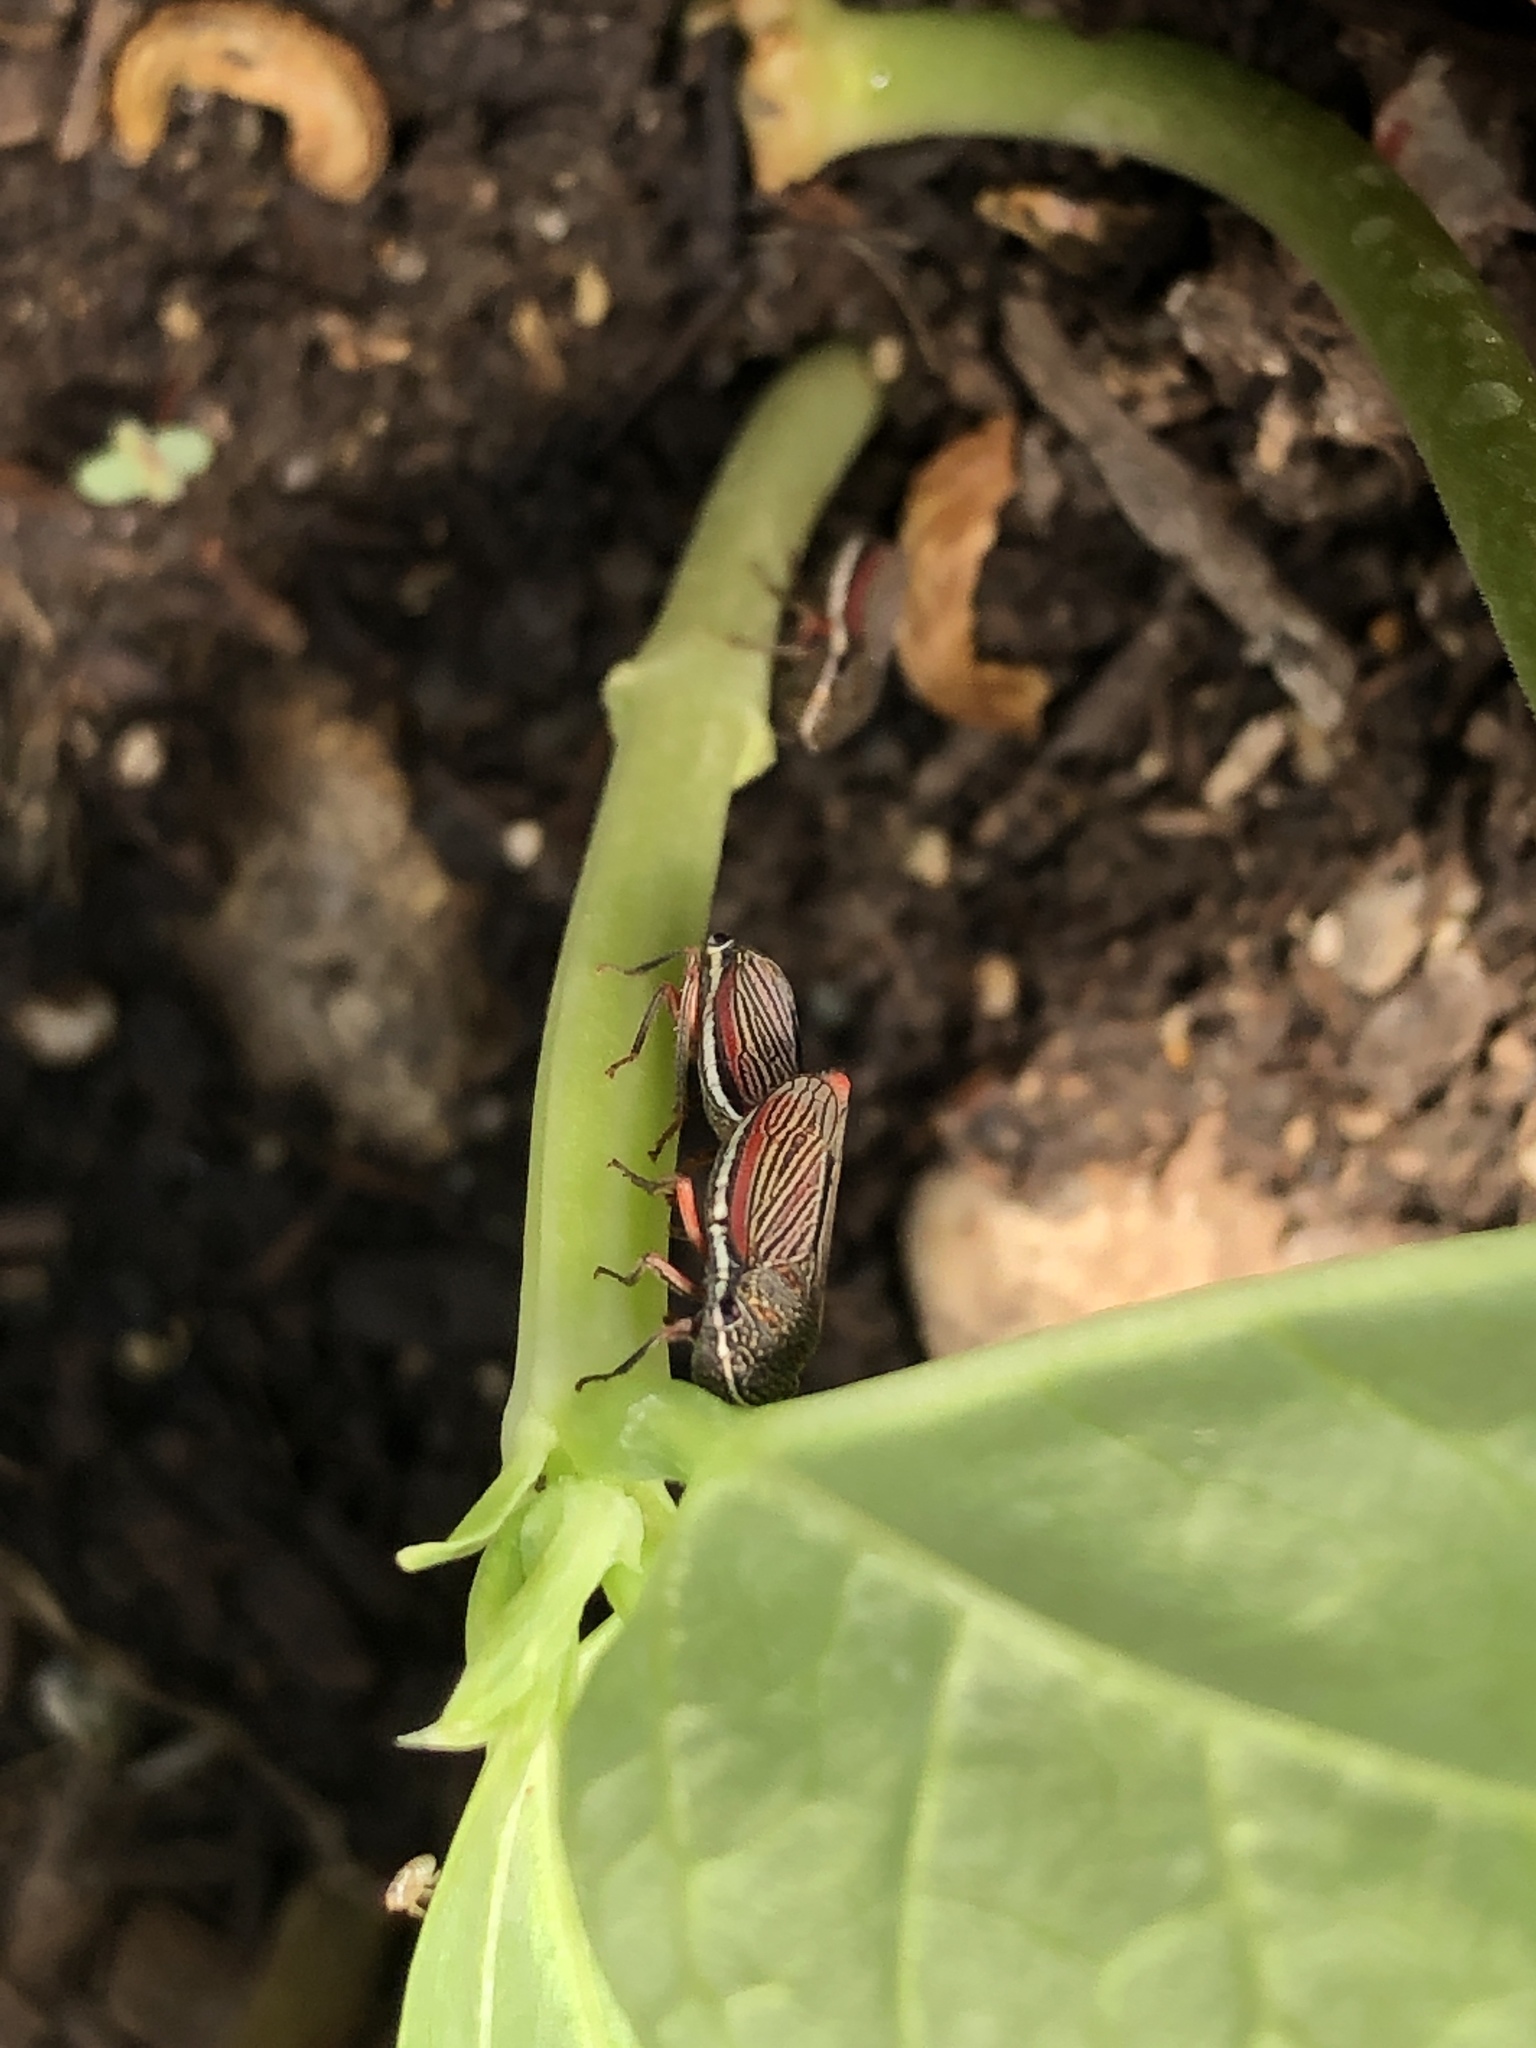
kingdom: Animalia
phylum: Arthropoda
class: Insecta
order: Hemiptera
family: Cicadellidae
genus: Cuerna
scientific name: Cuerna costalis
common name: Lateral-lined sharpshooter
